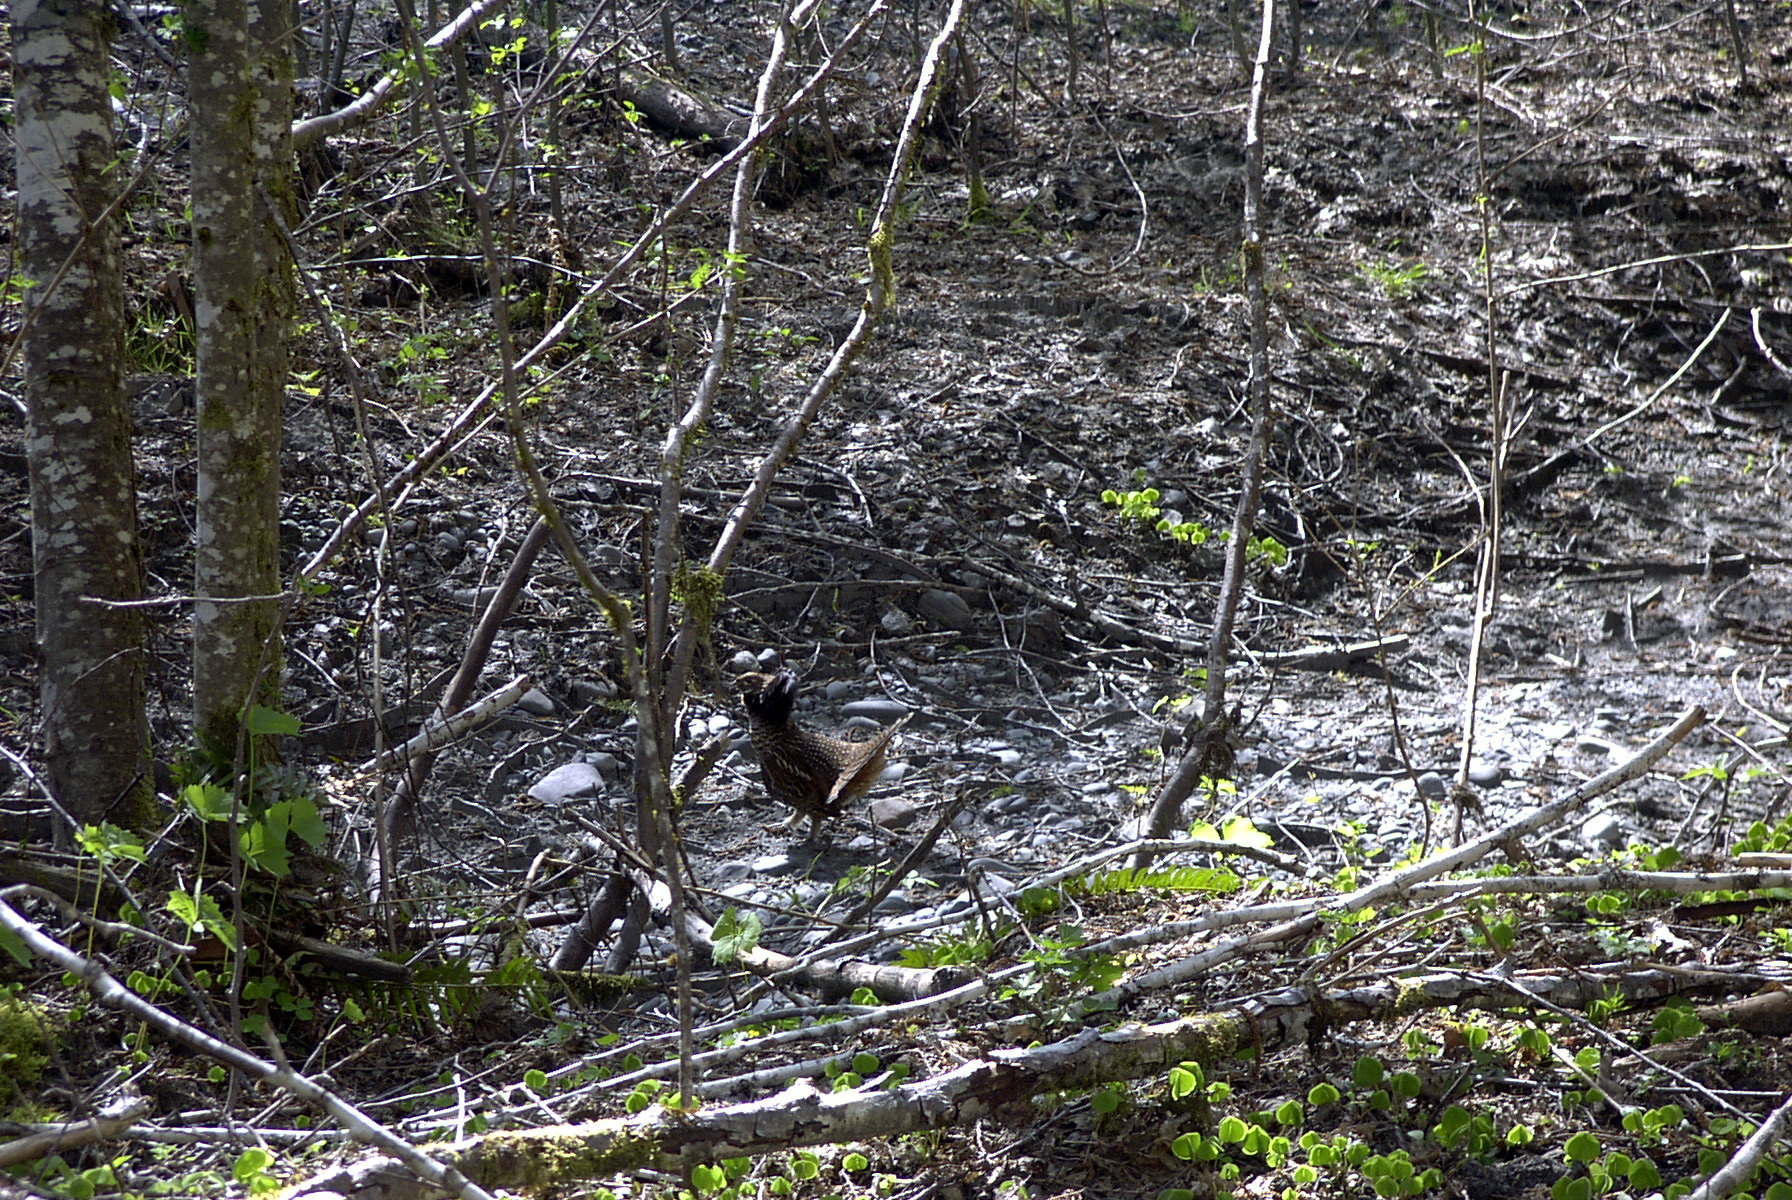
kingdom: Animalia
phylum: Chordata
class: Aves
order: Galliformes
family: Phasianidae
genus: Bonasa
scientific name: Bonasa umbellus
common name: Ruffed grouse
